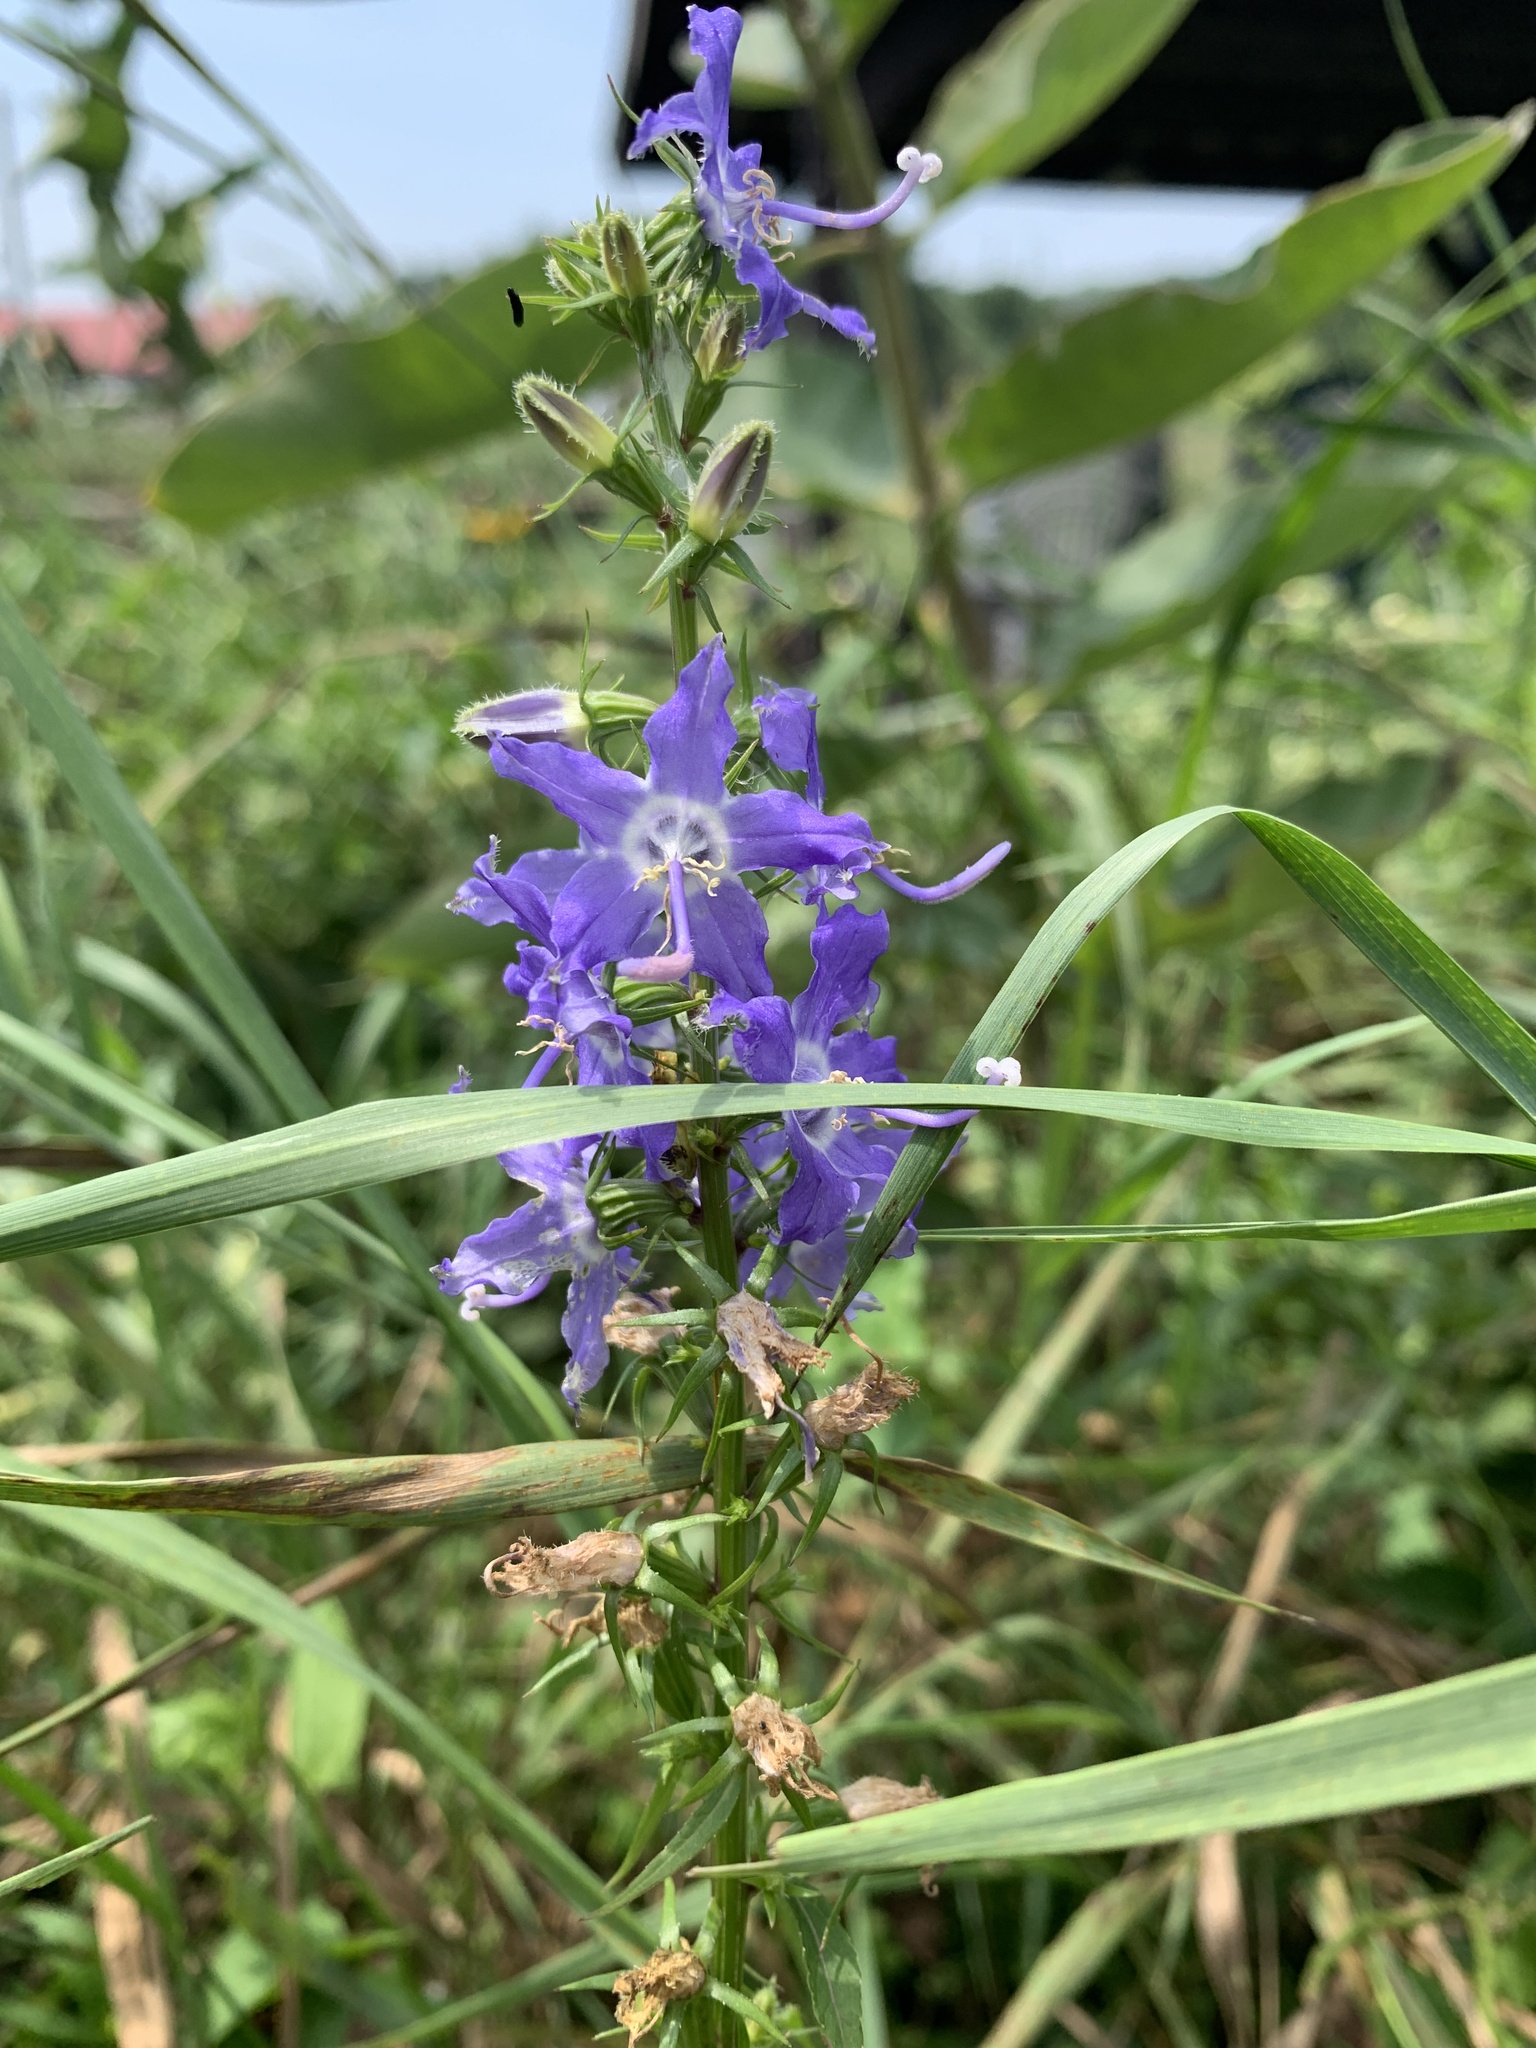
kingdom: Plantae
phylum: Tracheophyta
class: Magnoliopsida
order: Asterales
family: Campanulaceae
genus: Campanulastrum
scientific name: Campanulastrum americanum
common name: American bellflower
